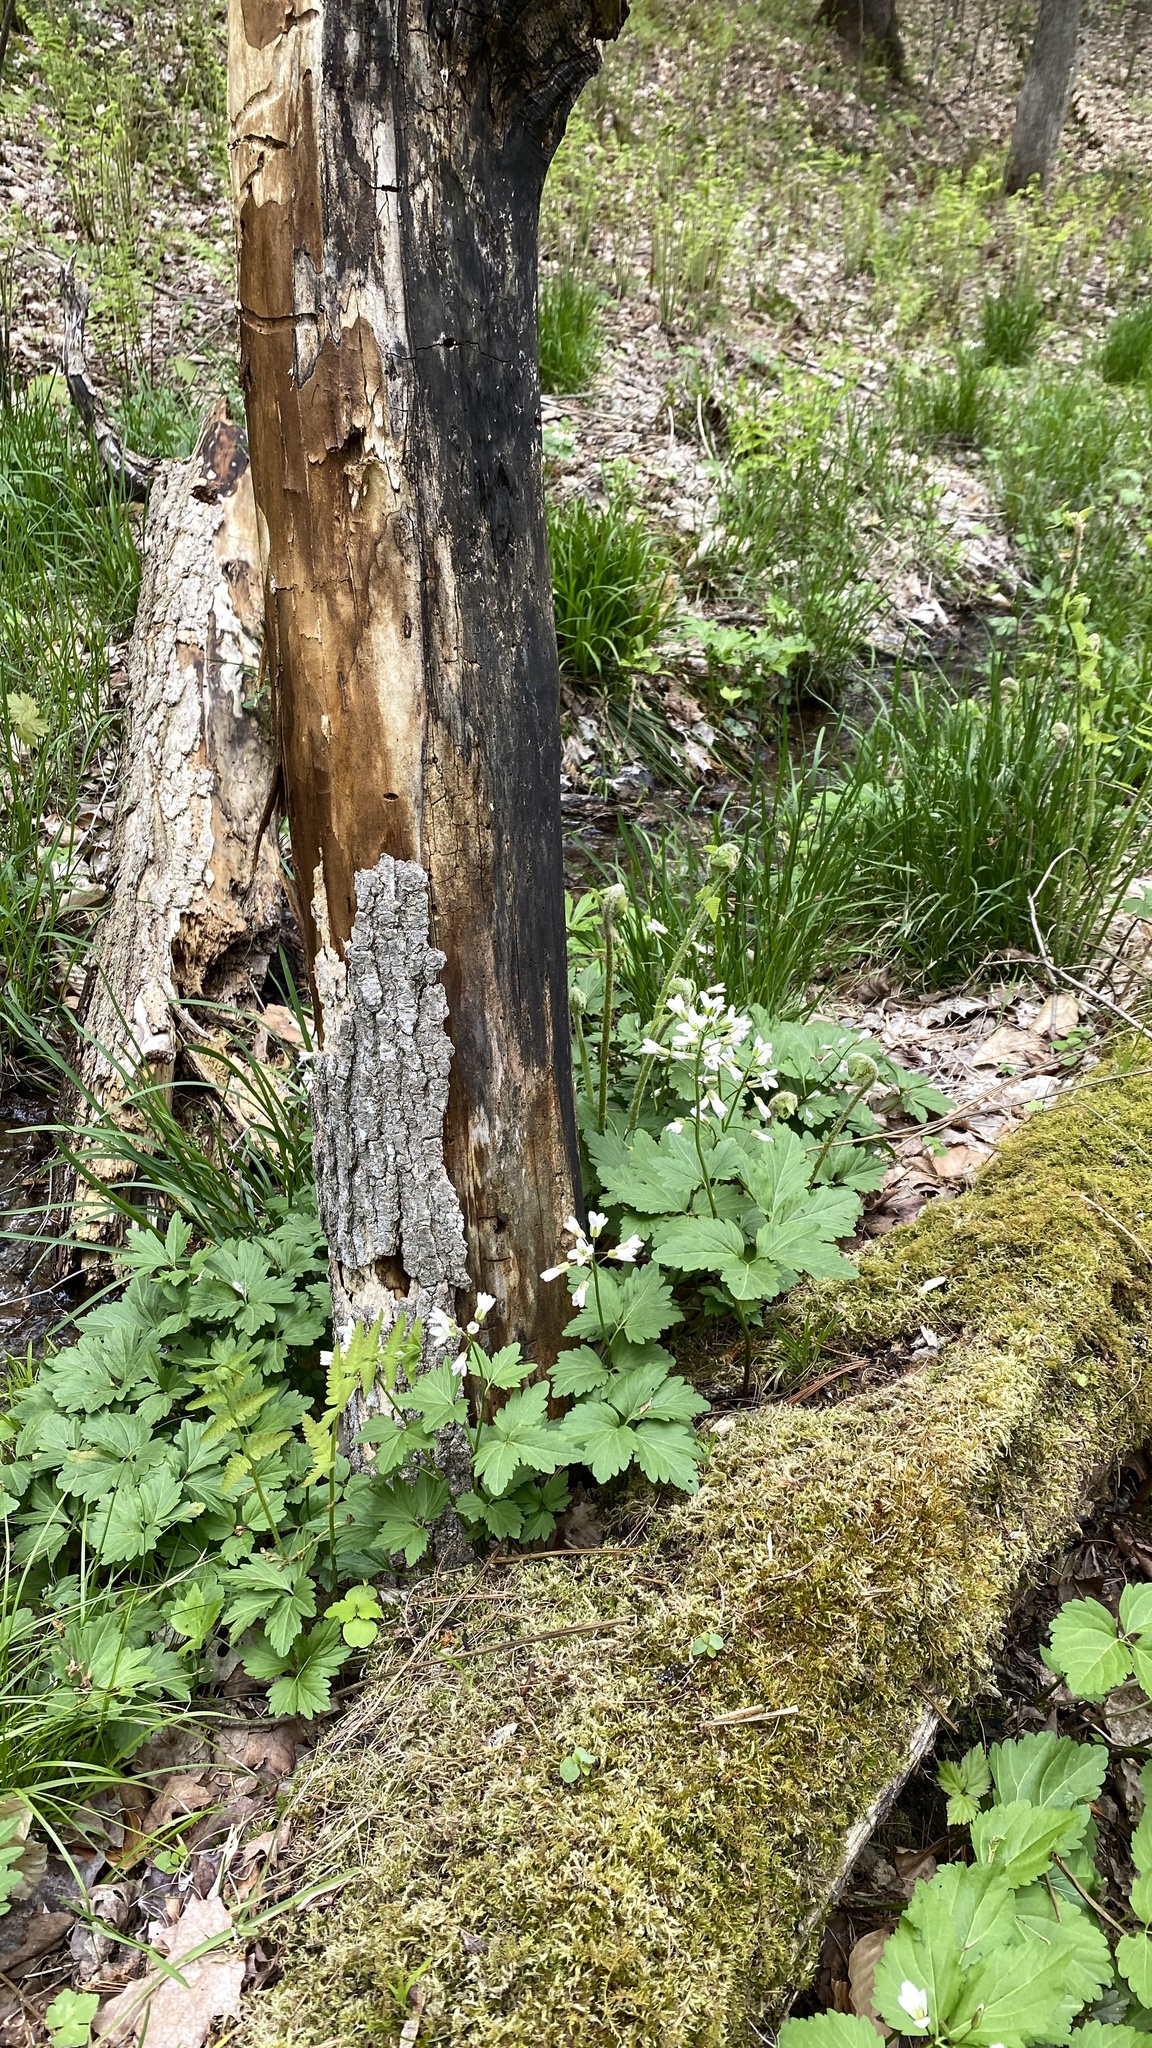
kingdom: Plantae
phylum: Tracheophyta
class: Magnoliopsida
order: Brassicales
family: Brassicaceae
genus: Cardamine
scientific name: Cardamine diphylla
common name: Broad-leaved toothwort
